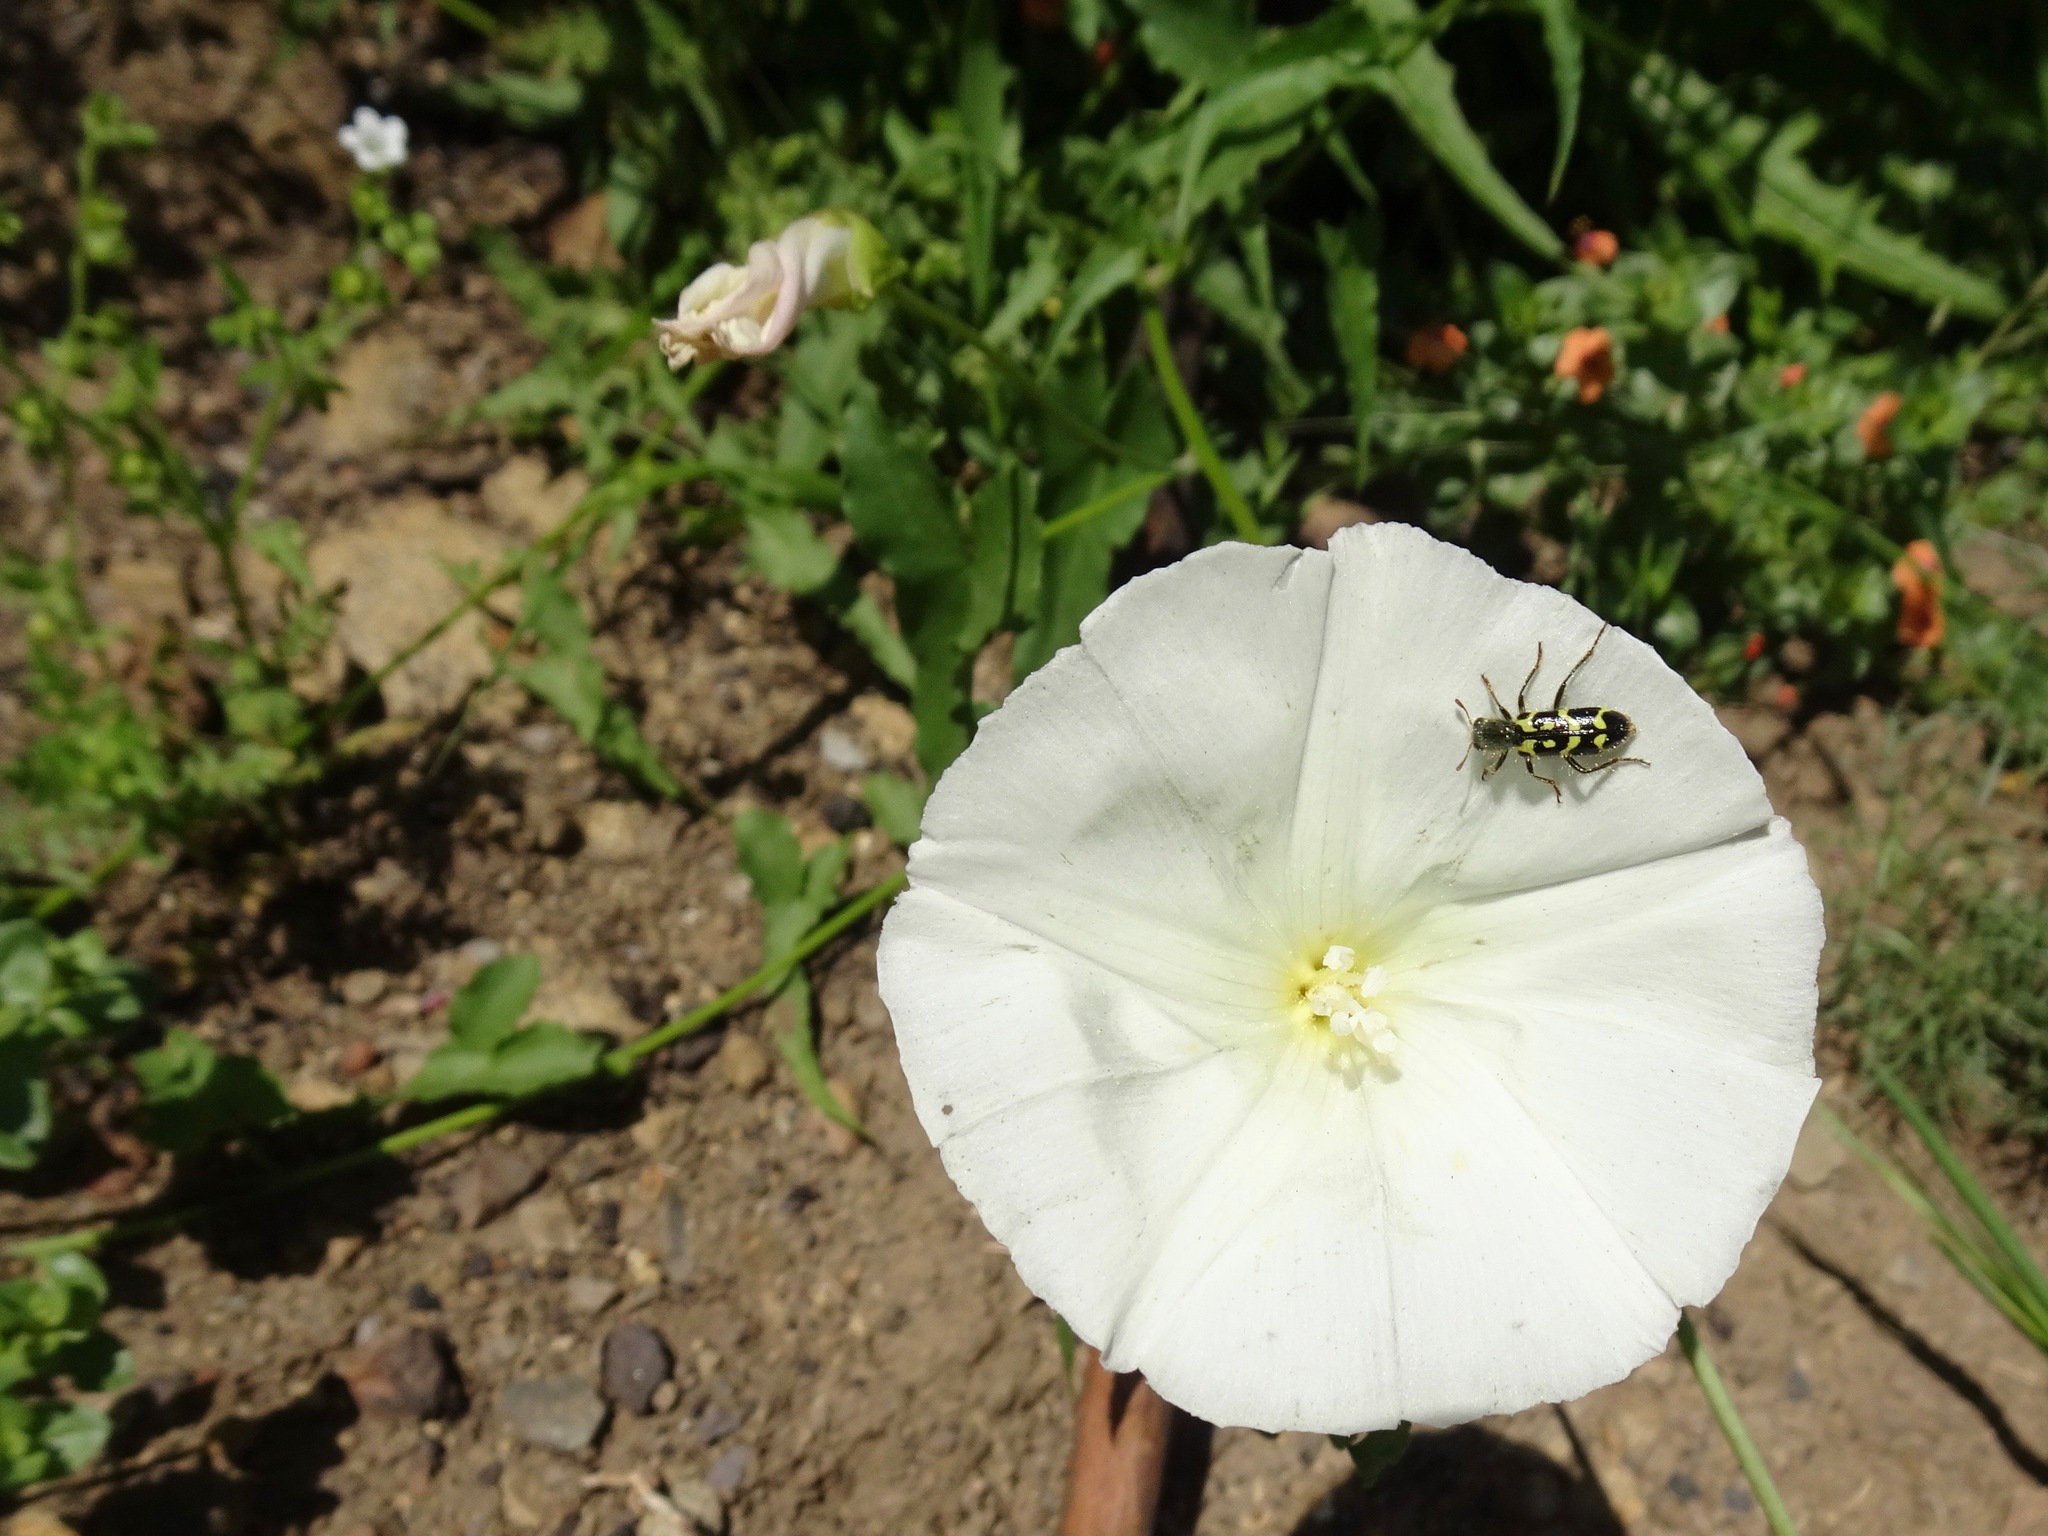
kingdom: Animalia
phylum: Arthropoda
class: Insecta
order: Coleoptera
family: Cleridae
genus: Trichodes
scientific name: Trichodes ornatus
